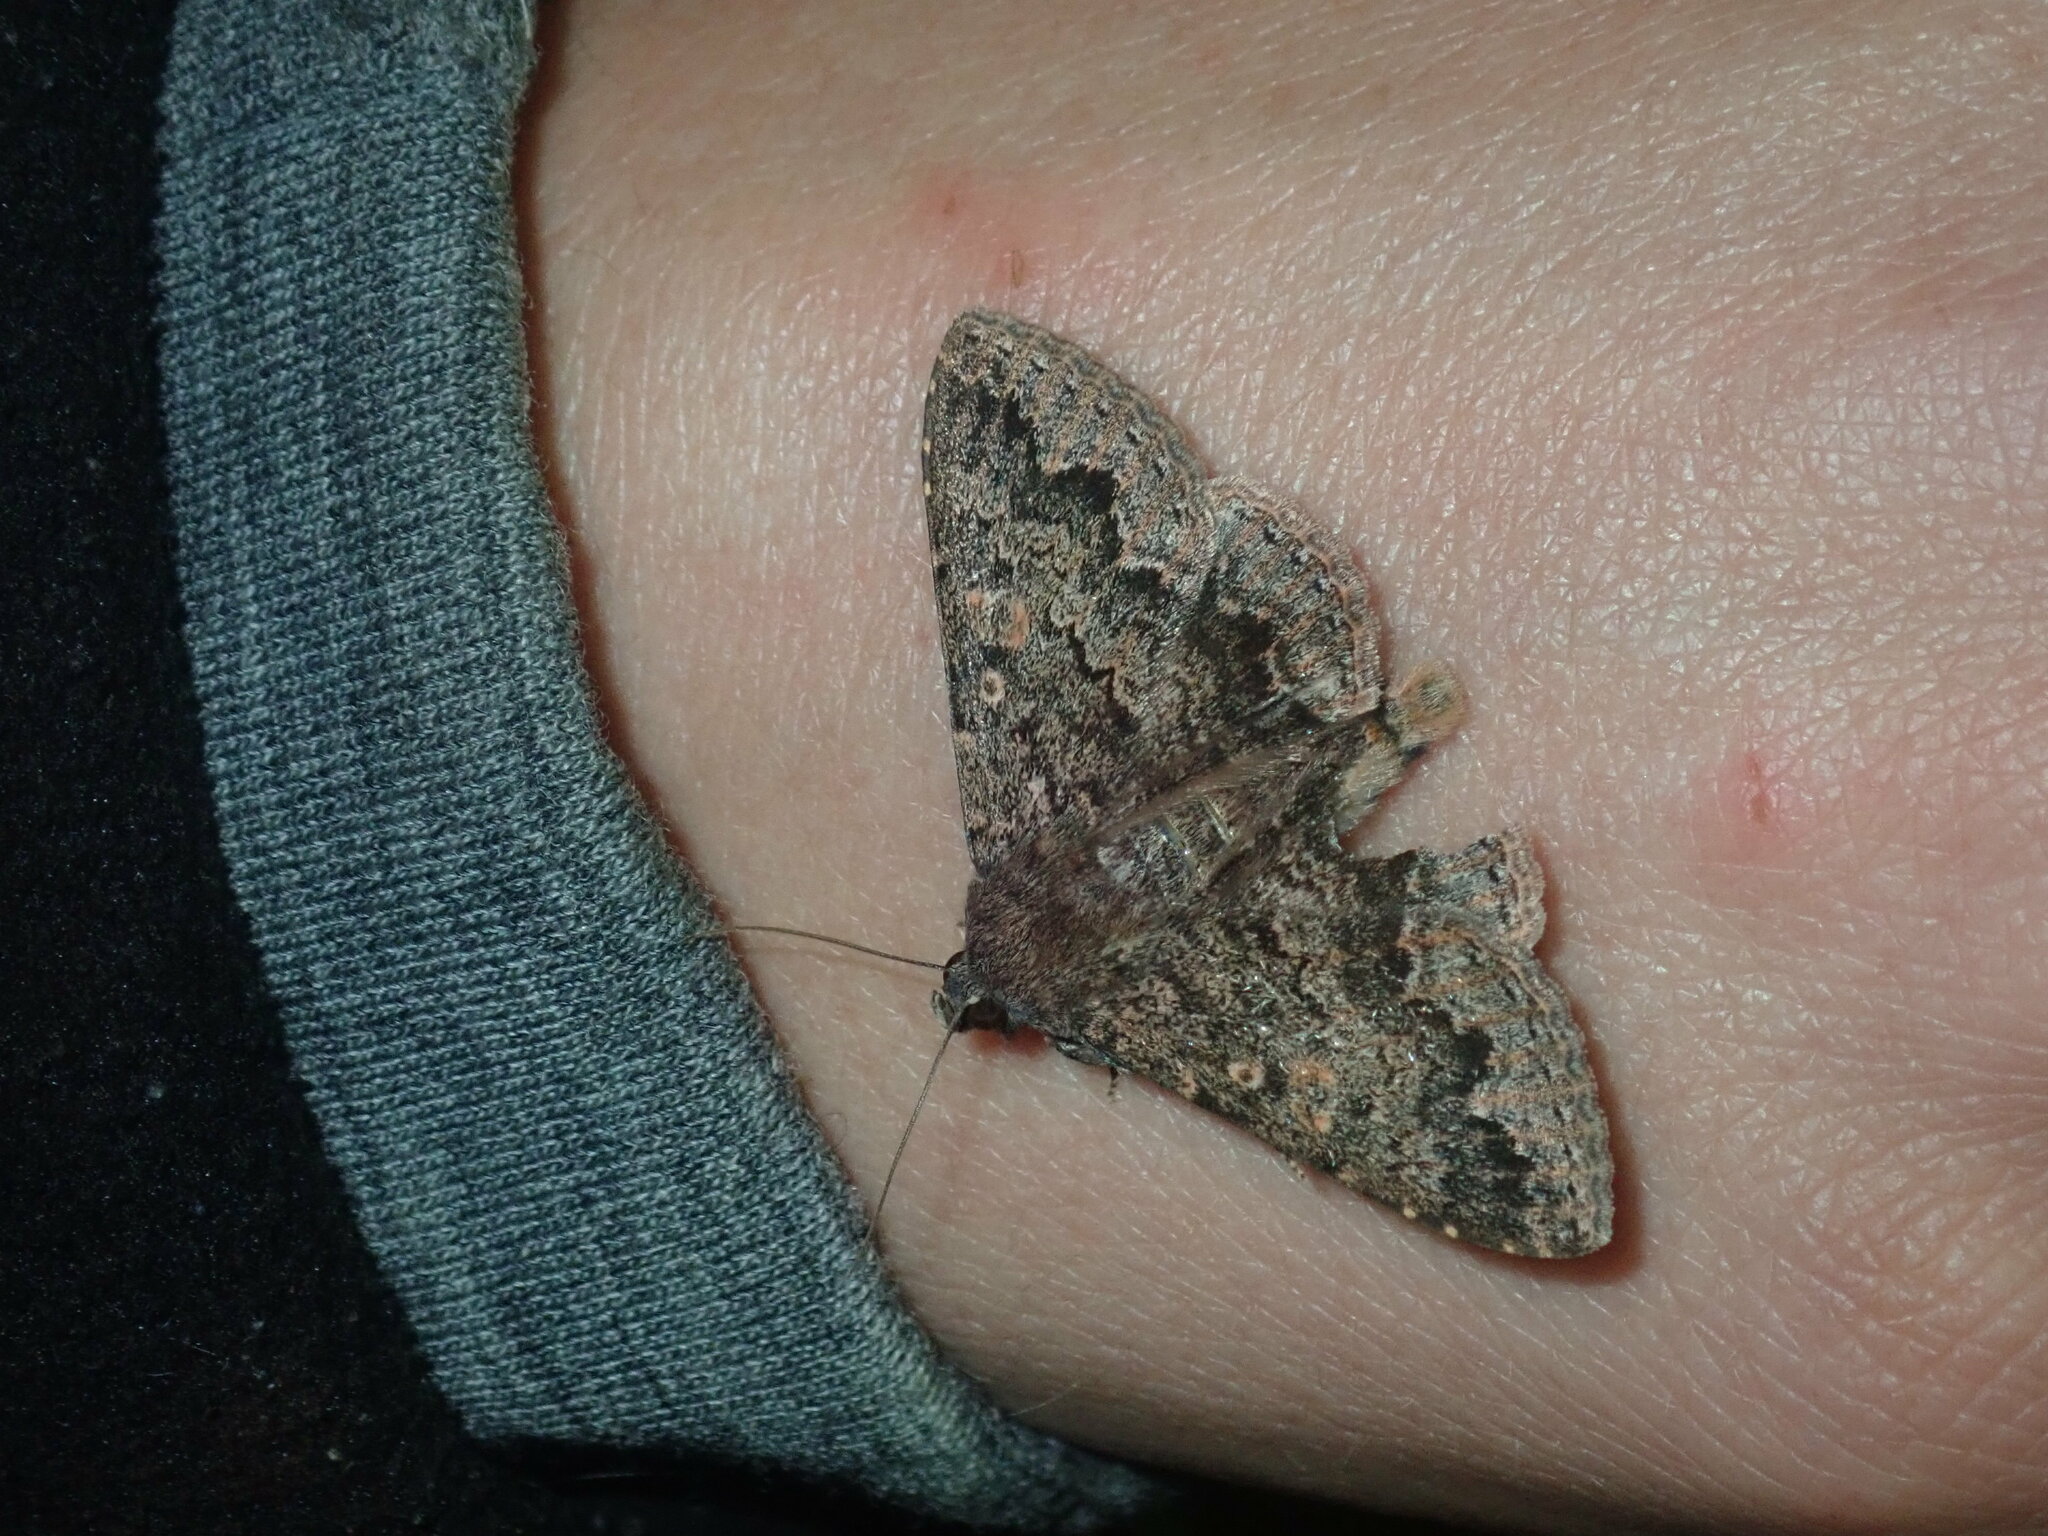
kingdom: Animalia
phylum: Arthropoda
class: Insecta
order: Lepidoptera
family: Erebidae
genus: Eudesmeola
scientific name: Eudesmeola lawsoni
